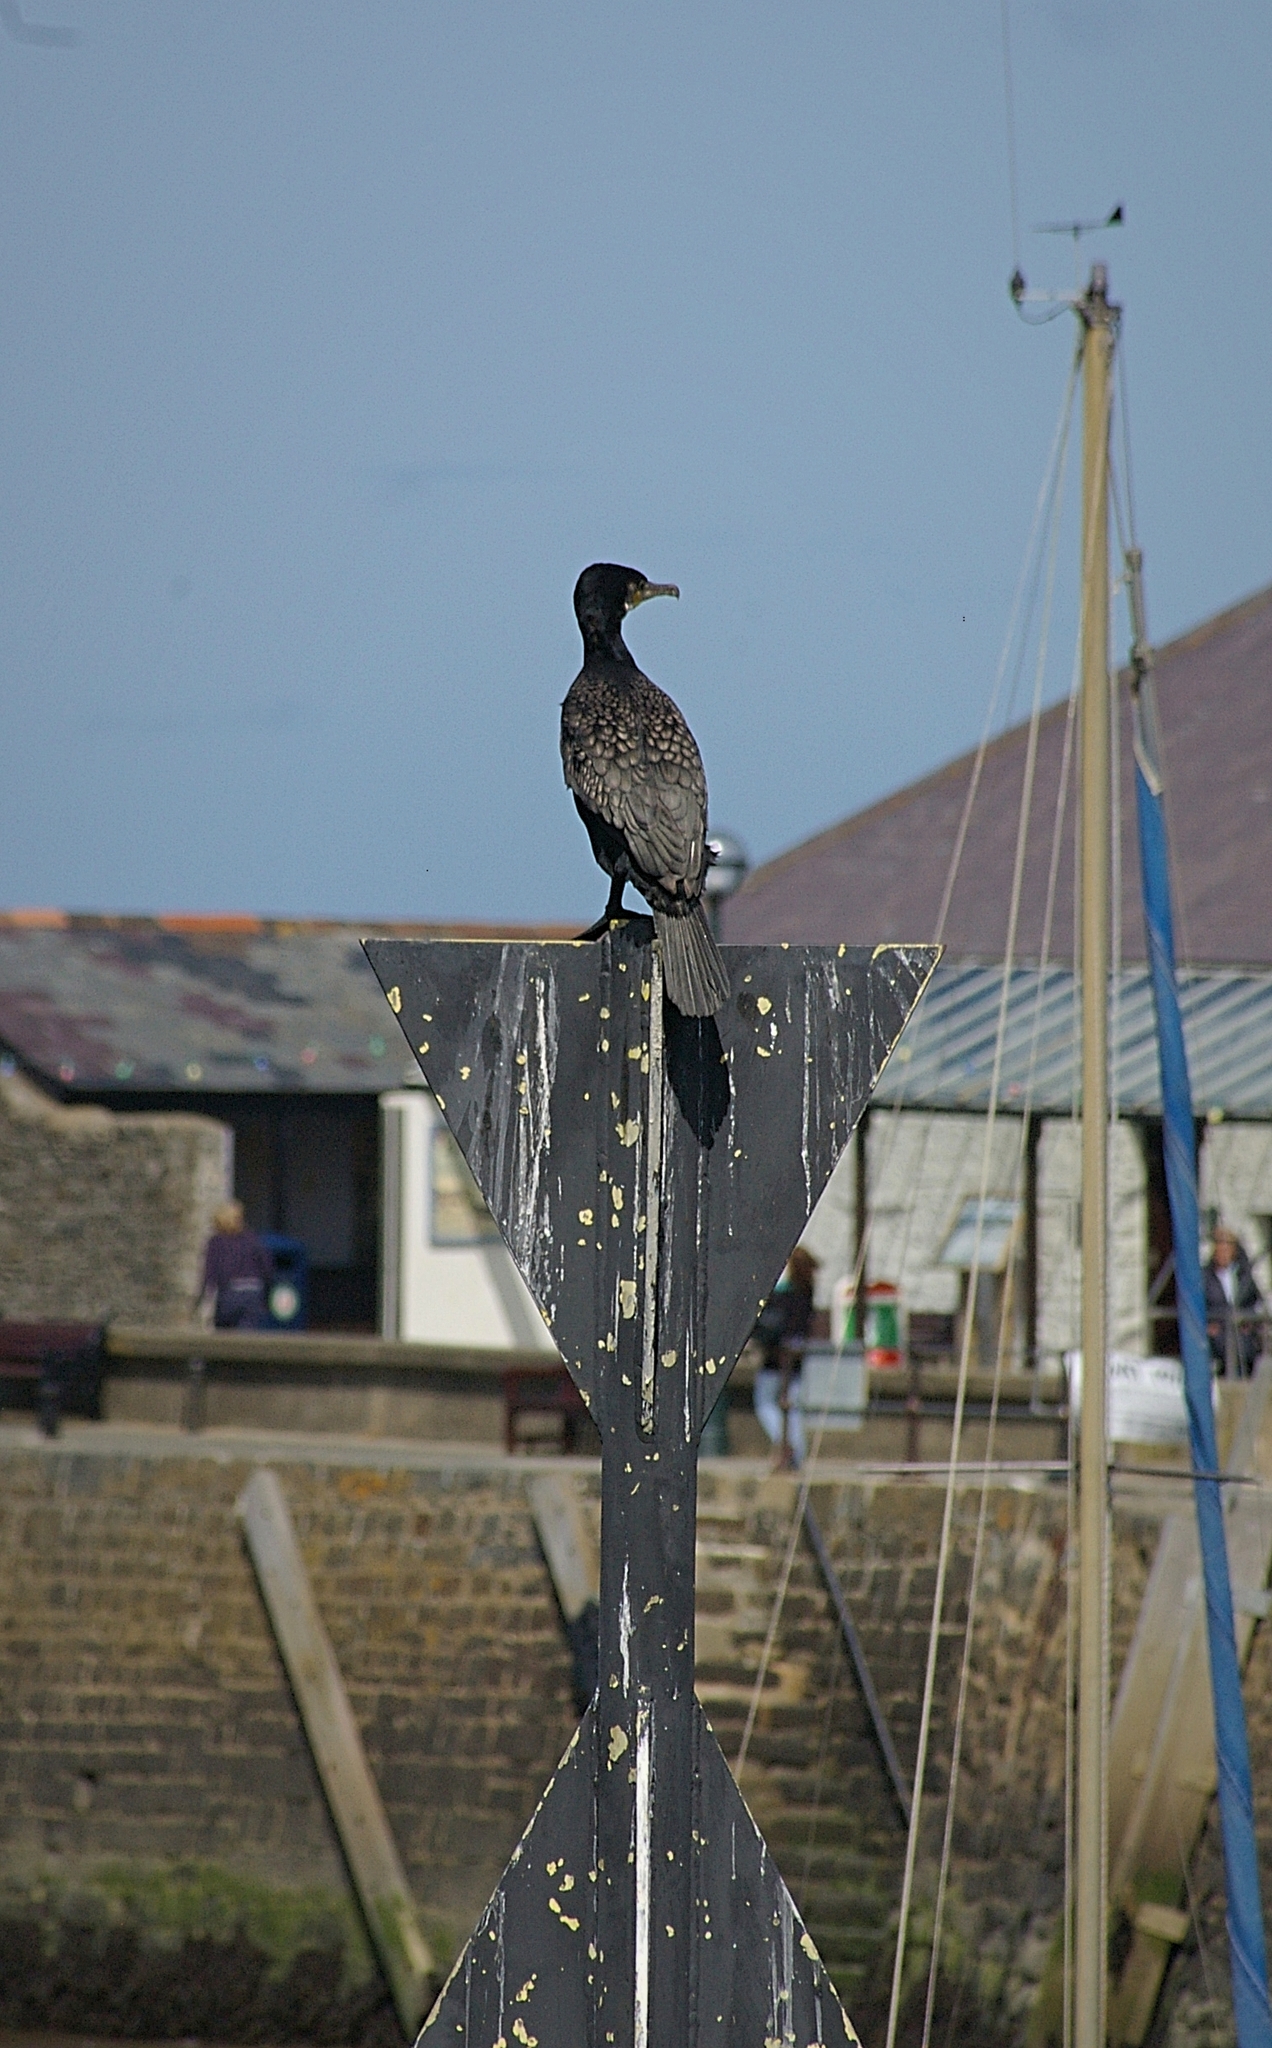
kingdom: Animalia
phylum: Chordata
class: Aves
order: Suliformes
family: Phalacrocoracidae
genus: Phalacrocorax
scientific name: Phalacrocorax carbo
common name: Great cormorant
